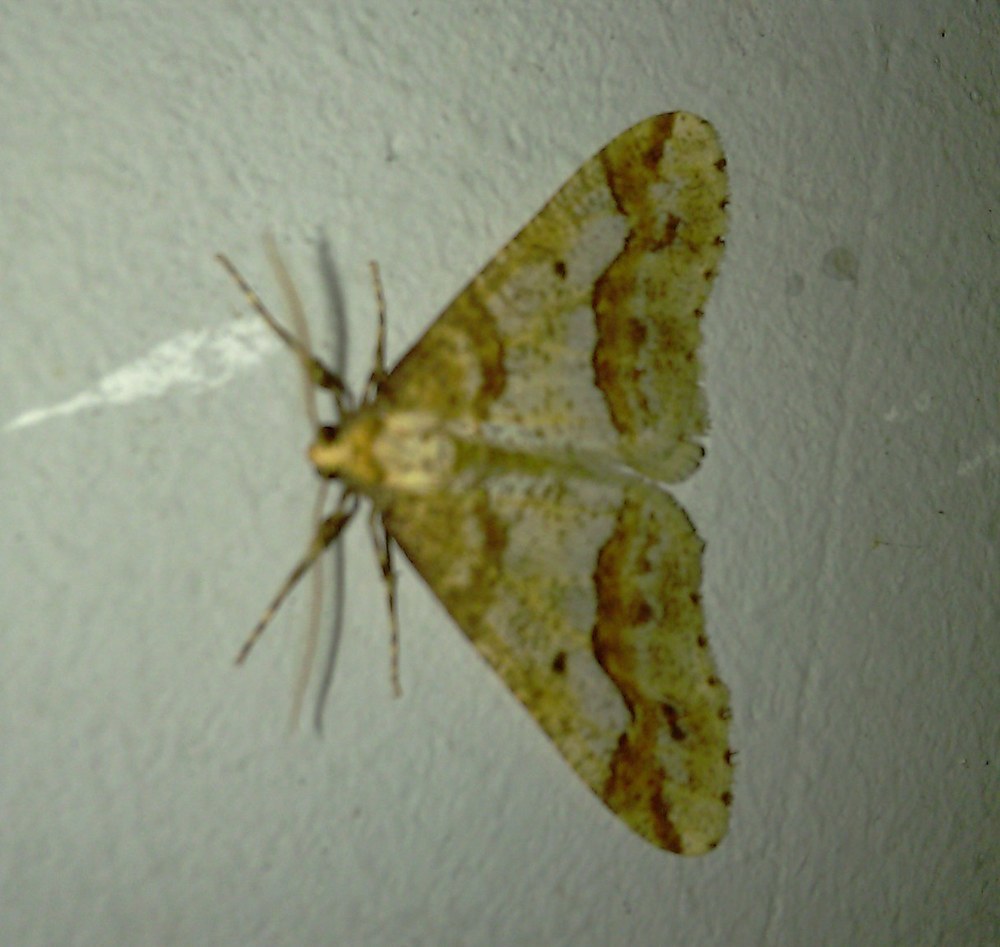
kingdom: Animalia
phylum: Arthropoda
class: Insecta
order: Lepidoptera
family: Geometridae
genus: Erannis
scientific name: Erannis defoliaria
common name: Mottled umber
